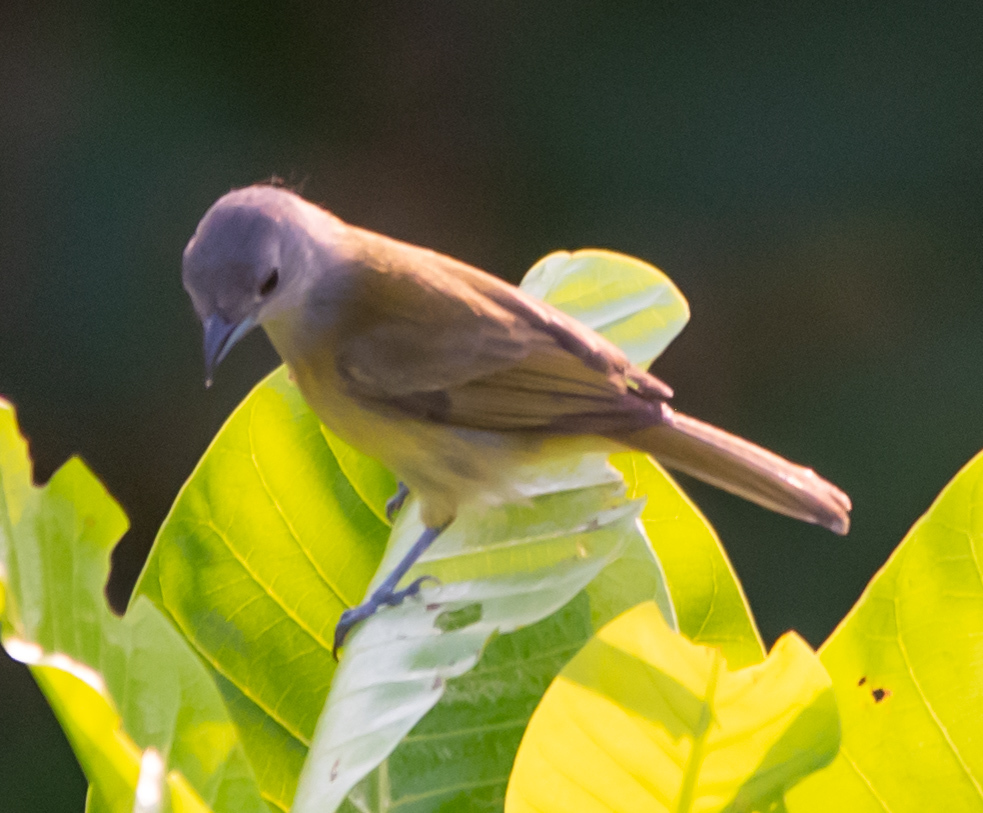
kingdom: Animalia
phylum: Chordata
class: Aves
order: Passeriformes
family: Thraupidae
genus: Loriotus
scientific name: Loriotus luctuosus
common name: White-shouldered tanager
